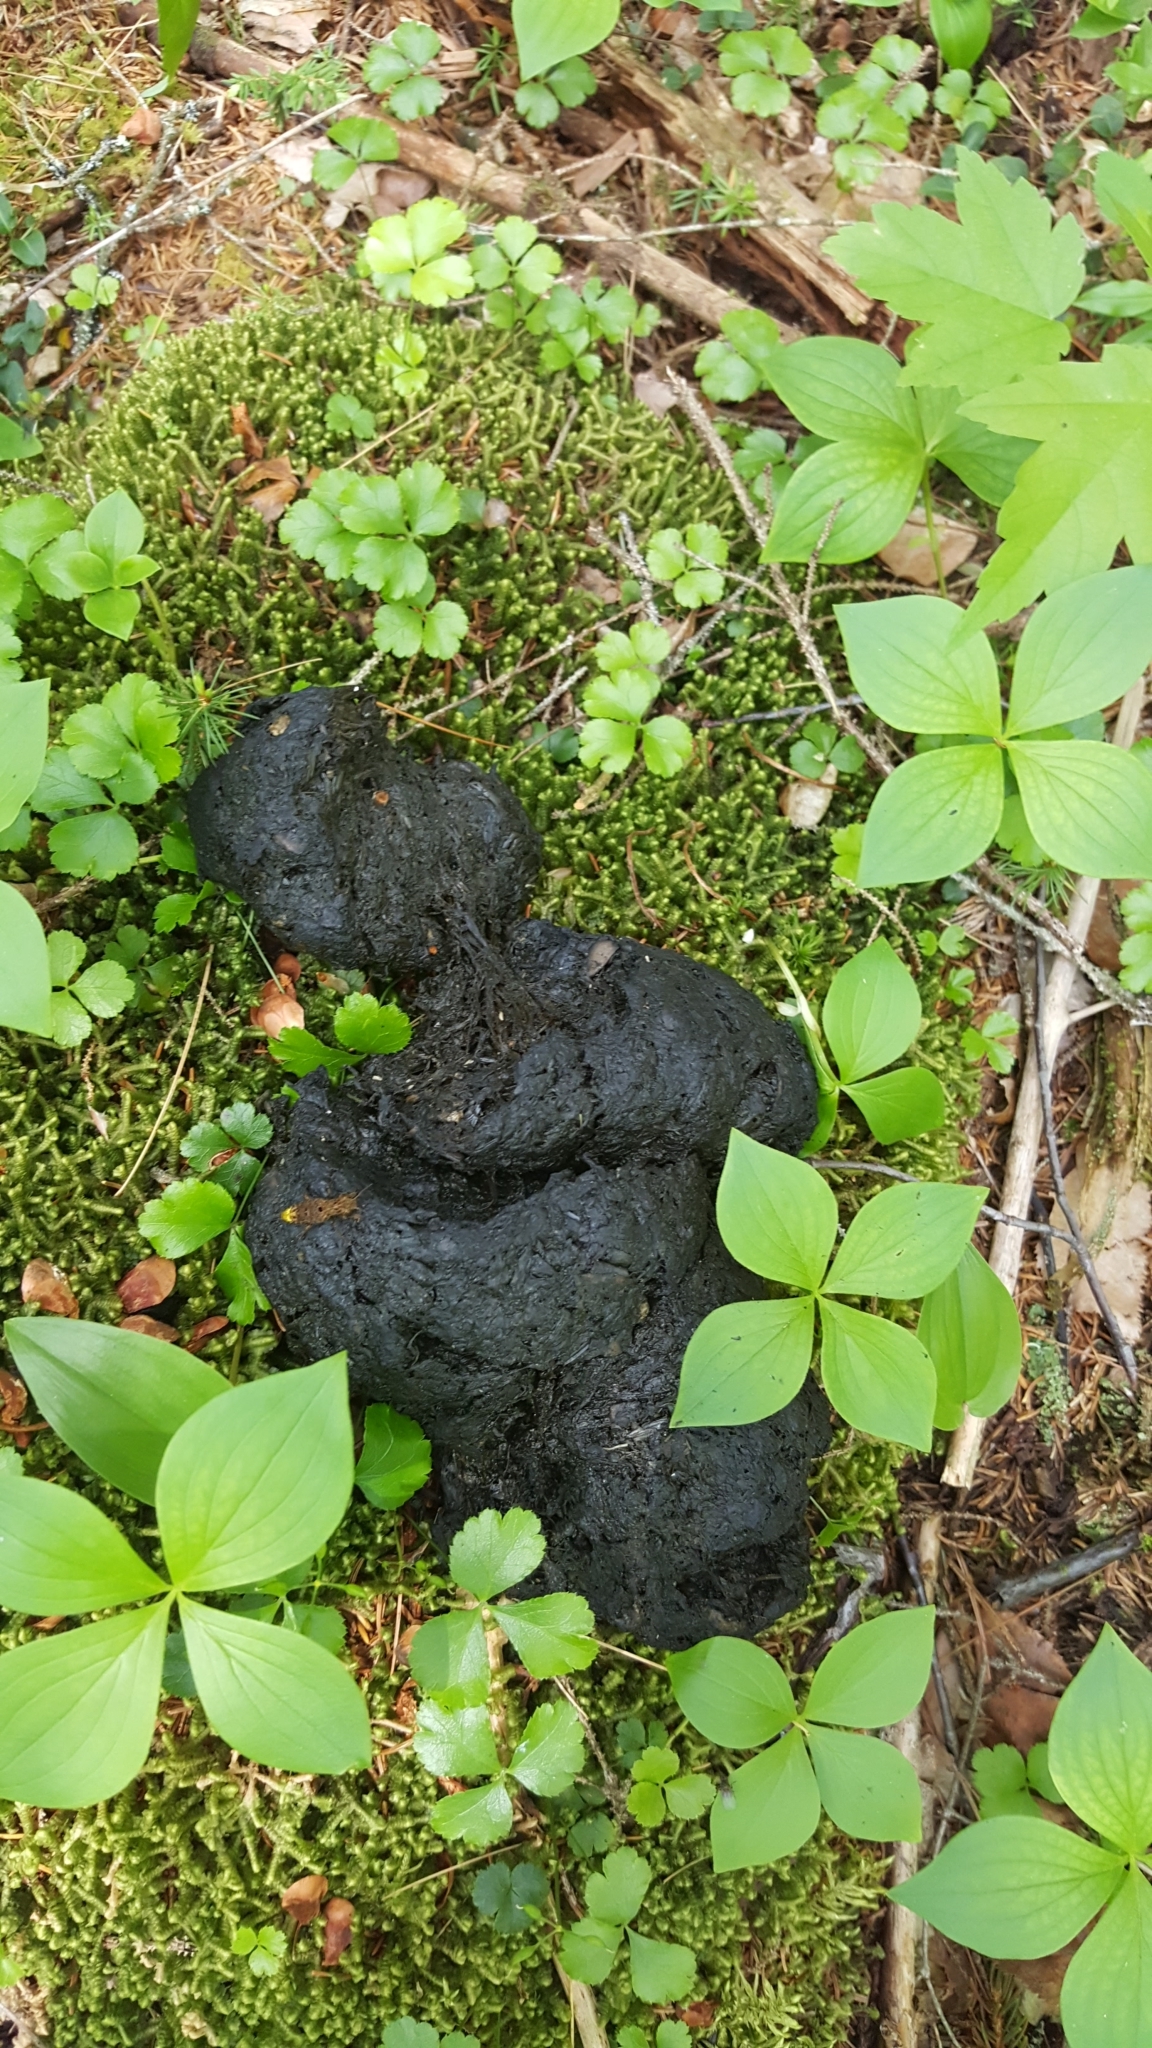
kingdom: Animalia
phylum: Chordata
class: Mammalia
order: Carnivora
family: Ursidae
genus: Ursus
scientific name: Ursus americanus
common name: American black bear
